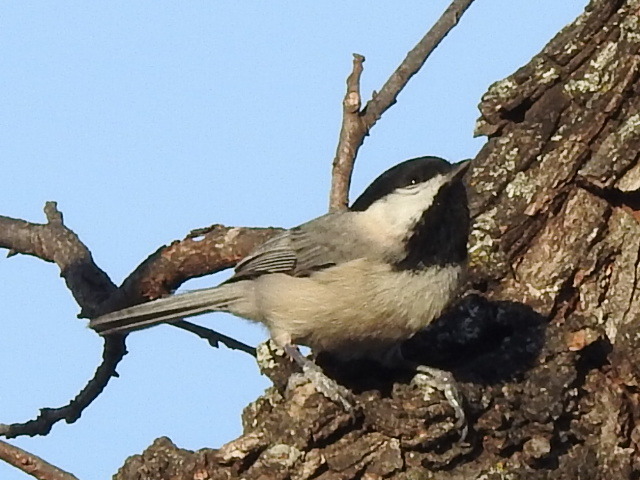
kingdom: Animalia
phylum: Chordata
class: Aves
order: Passeriformes
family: Paridae
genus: Poecile
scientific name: Poecile carolinensis
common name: Carolina chickadee
